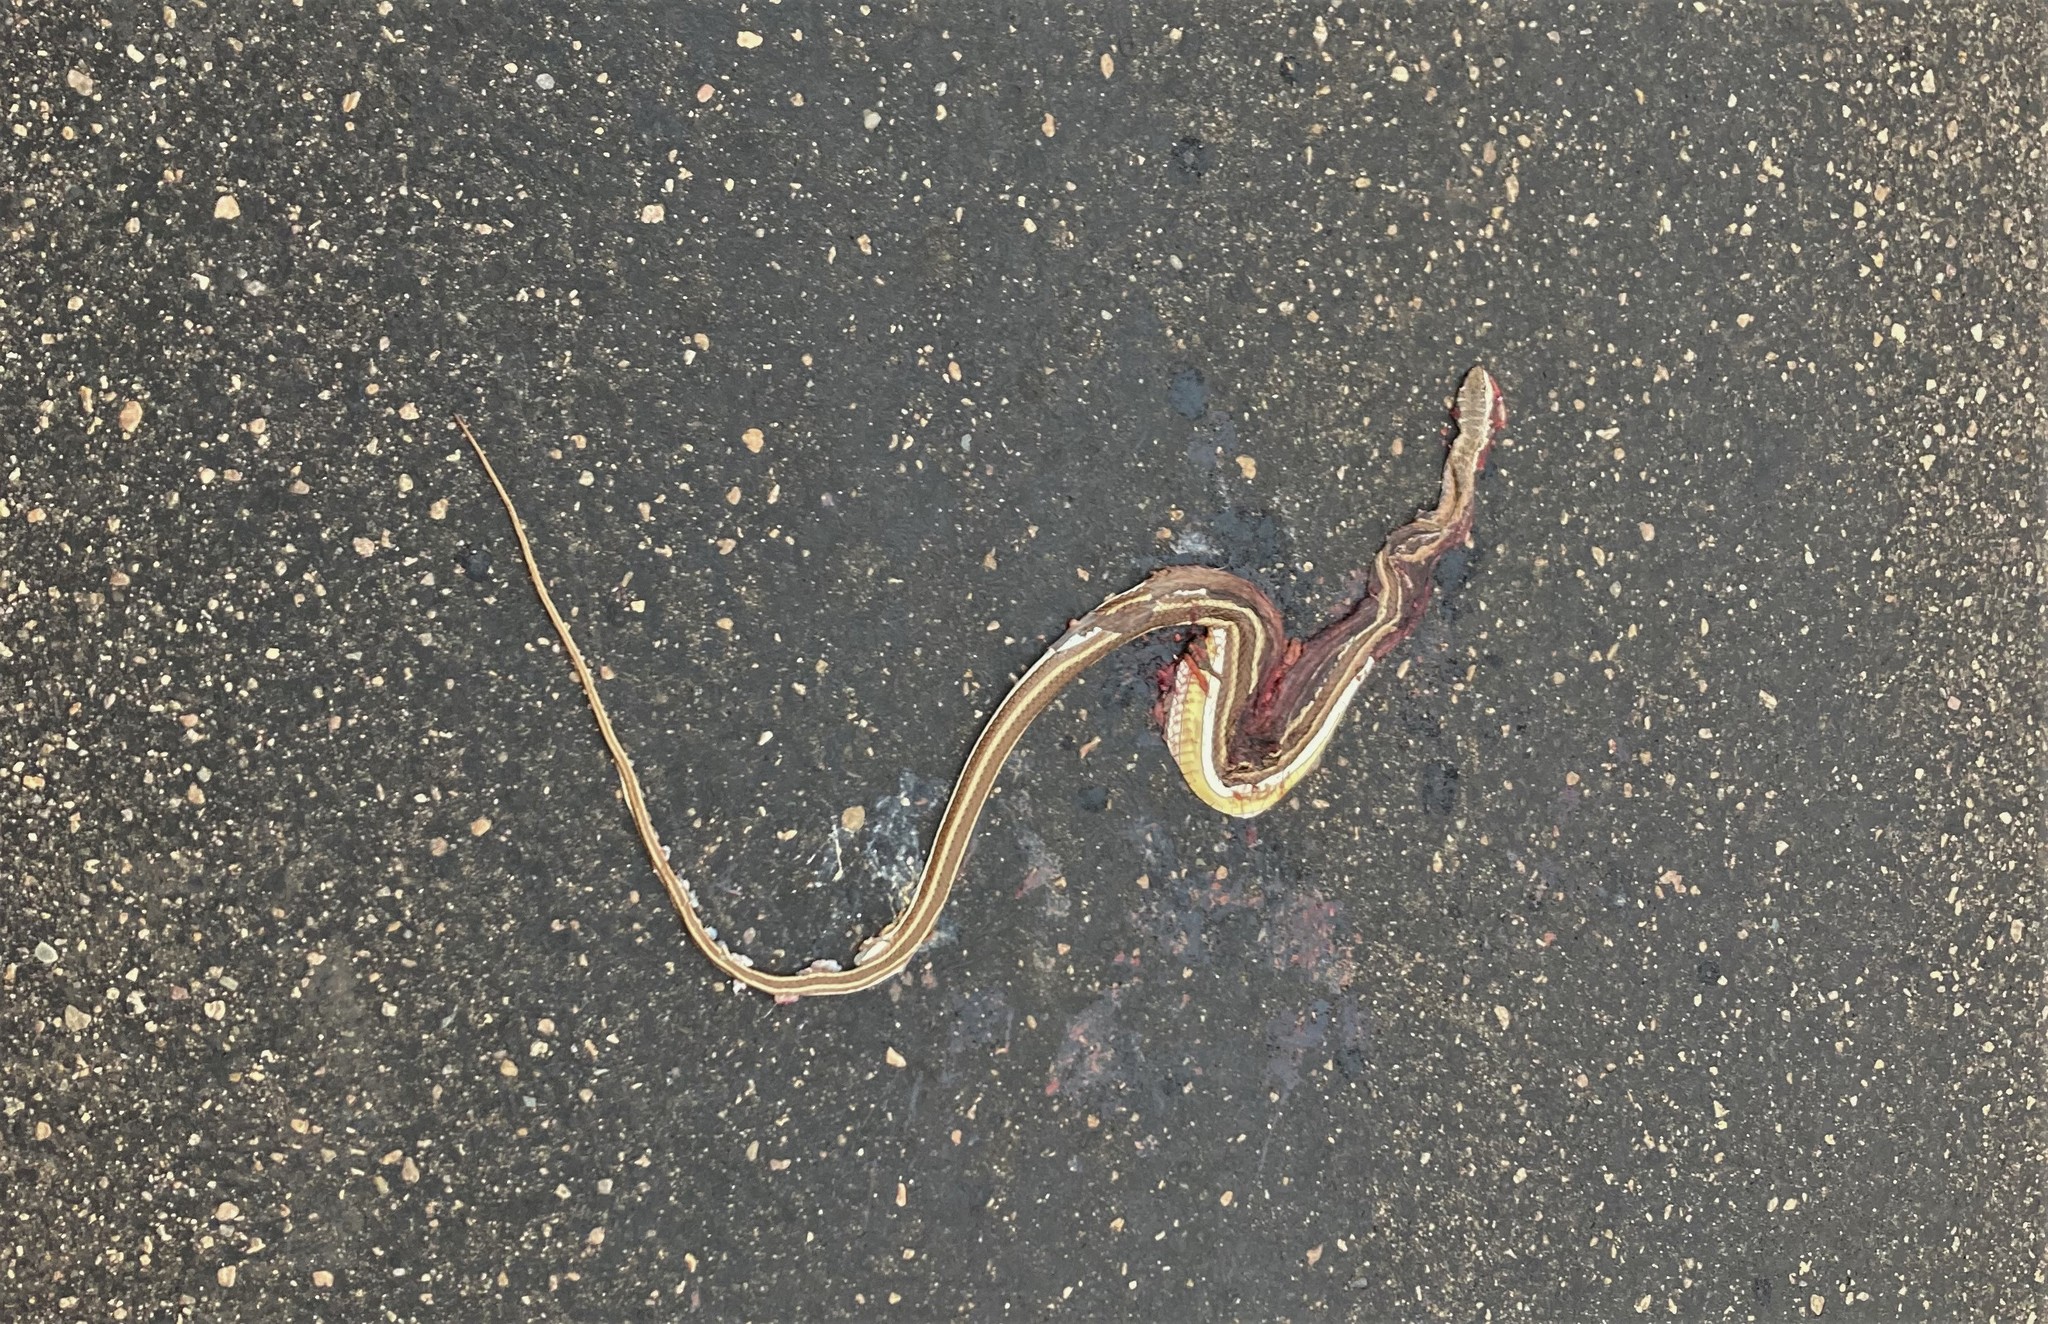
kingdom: Animalia
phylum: Chordata
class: Squamata
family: Psammophiidae
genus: Psammophis
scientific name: Psammophis subtaeniatus
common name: Stripe-bellied sand snake
